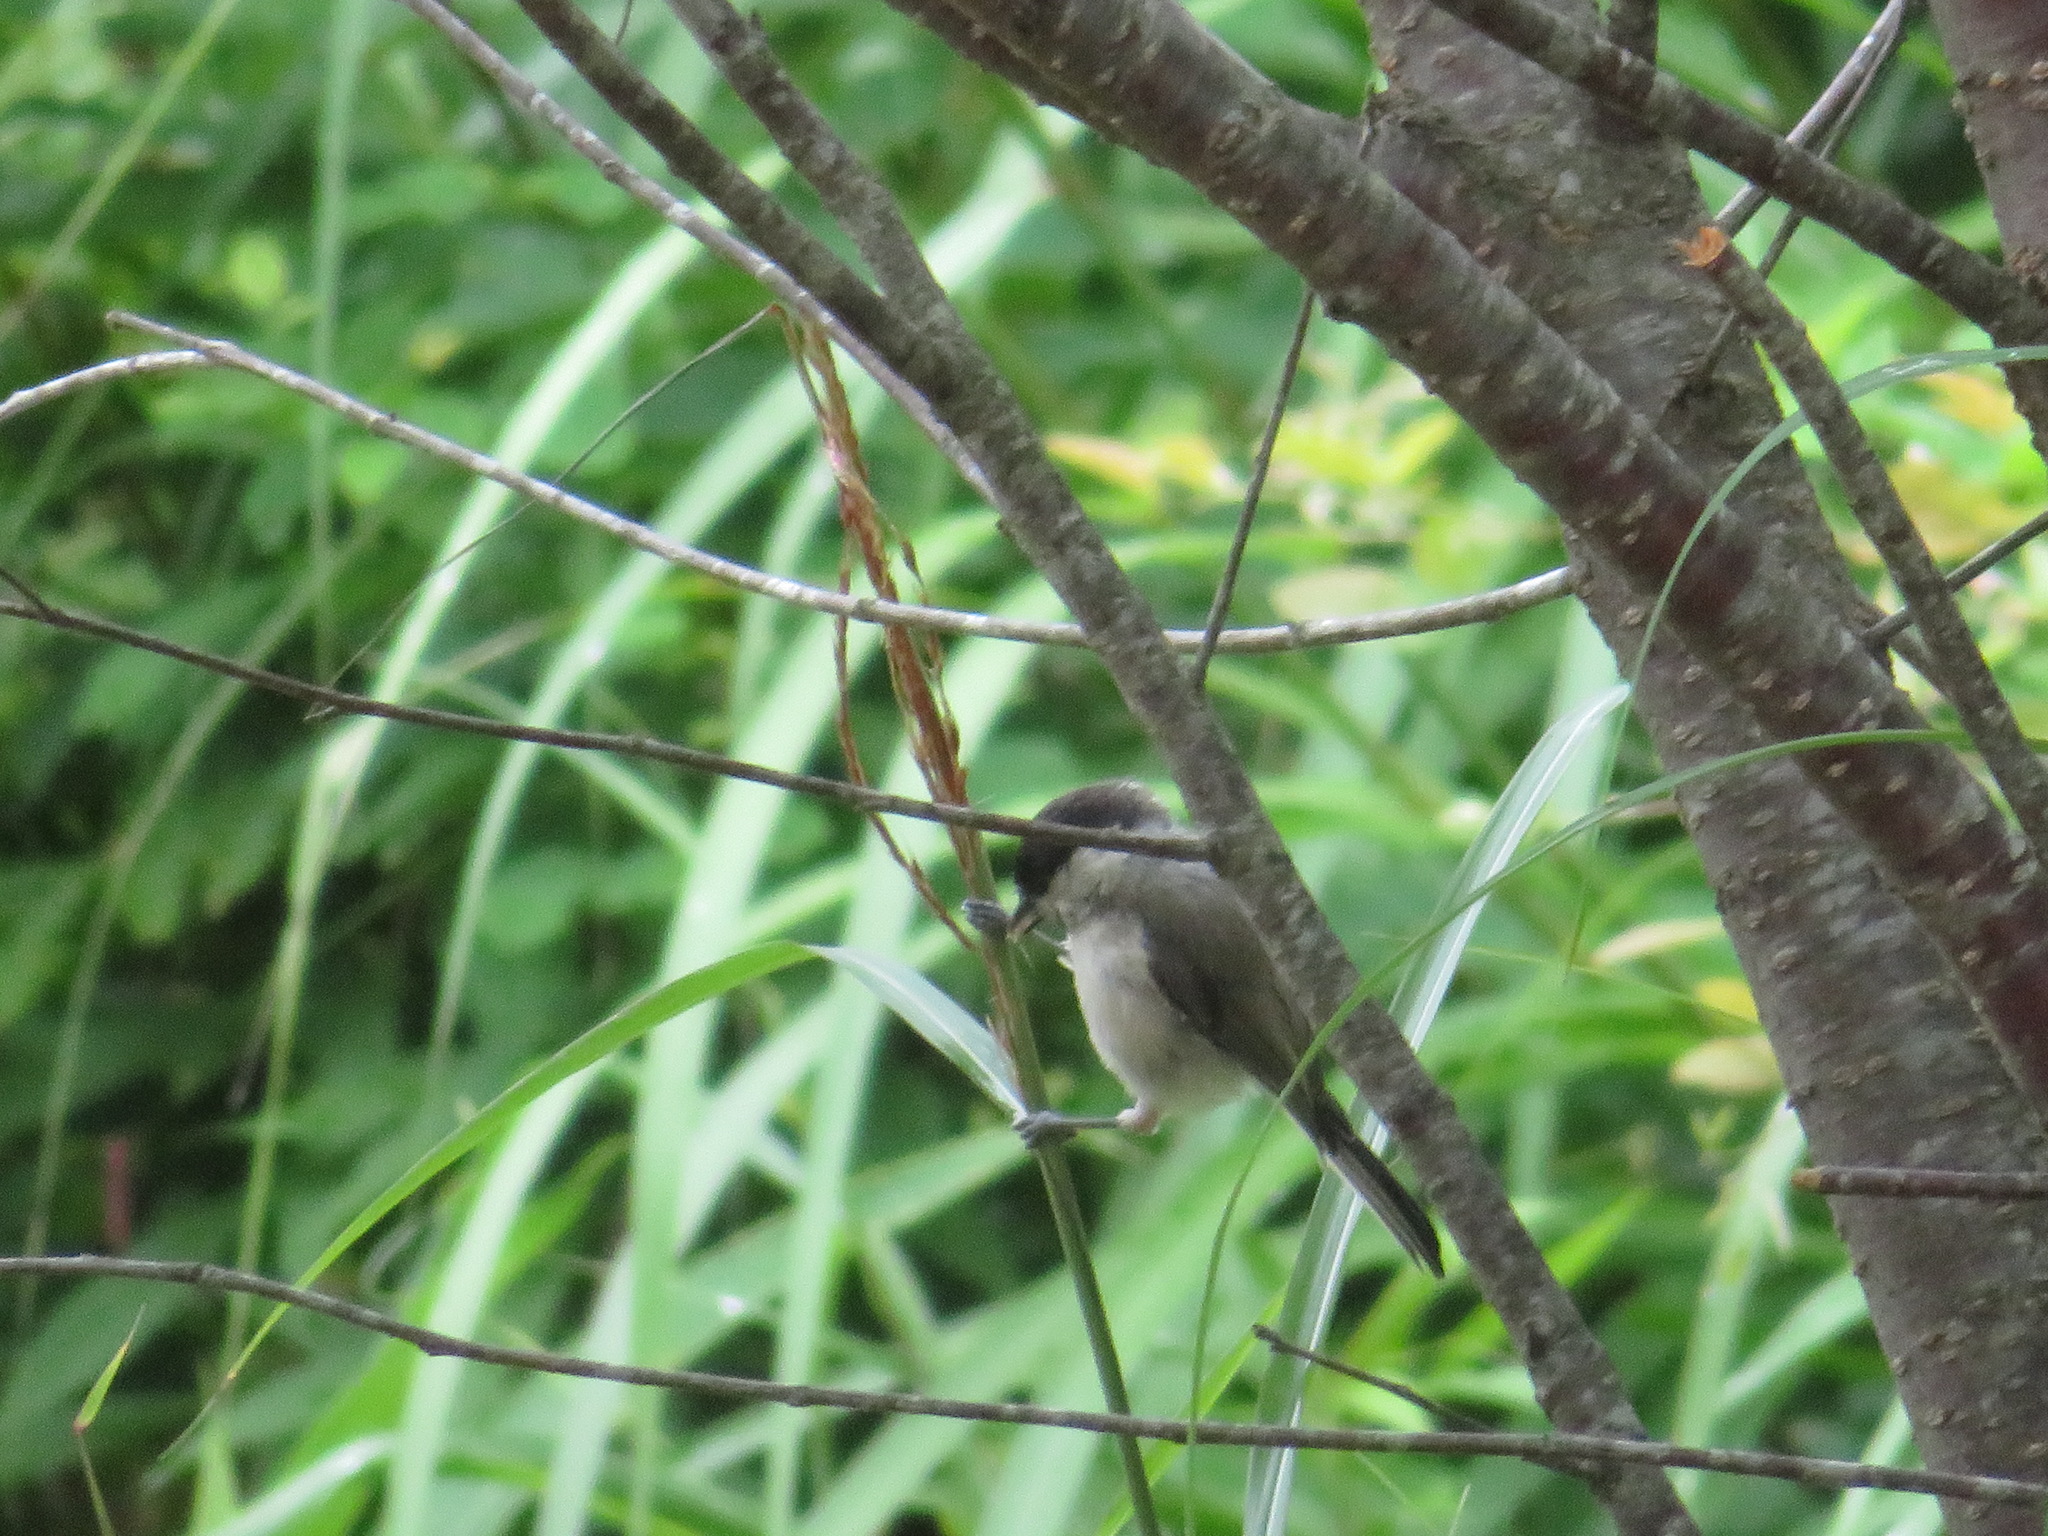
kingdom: Animalia
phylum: Chordata
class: Aves
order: Passeriformes
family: Paridae
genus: Poecile
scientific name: Poecile palustris
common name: Marsh tit
